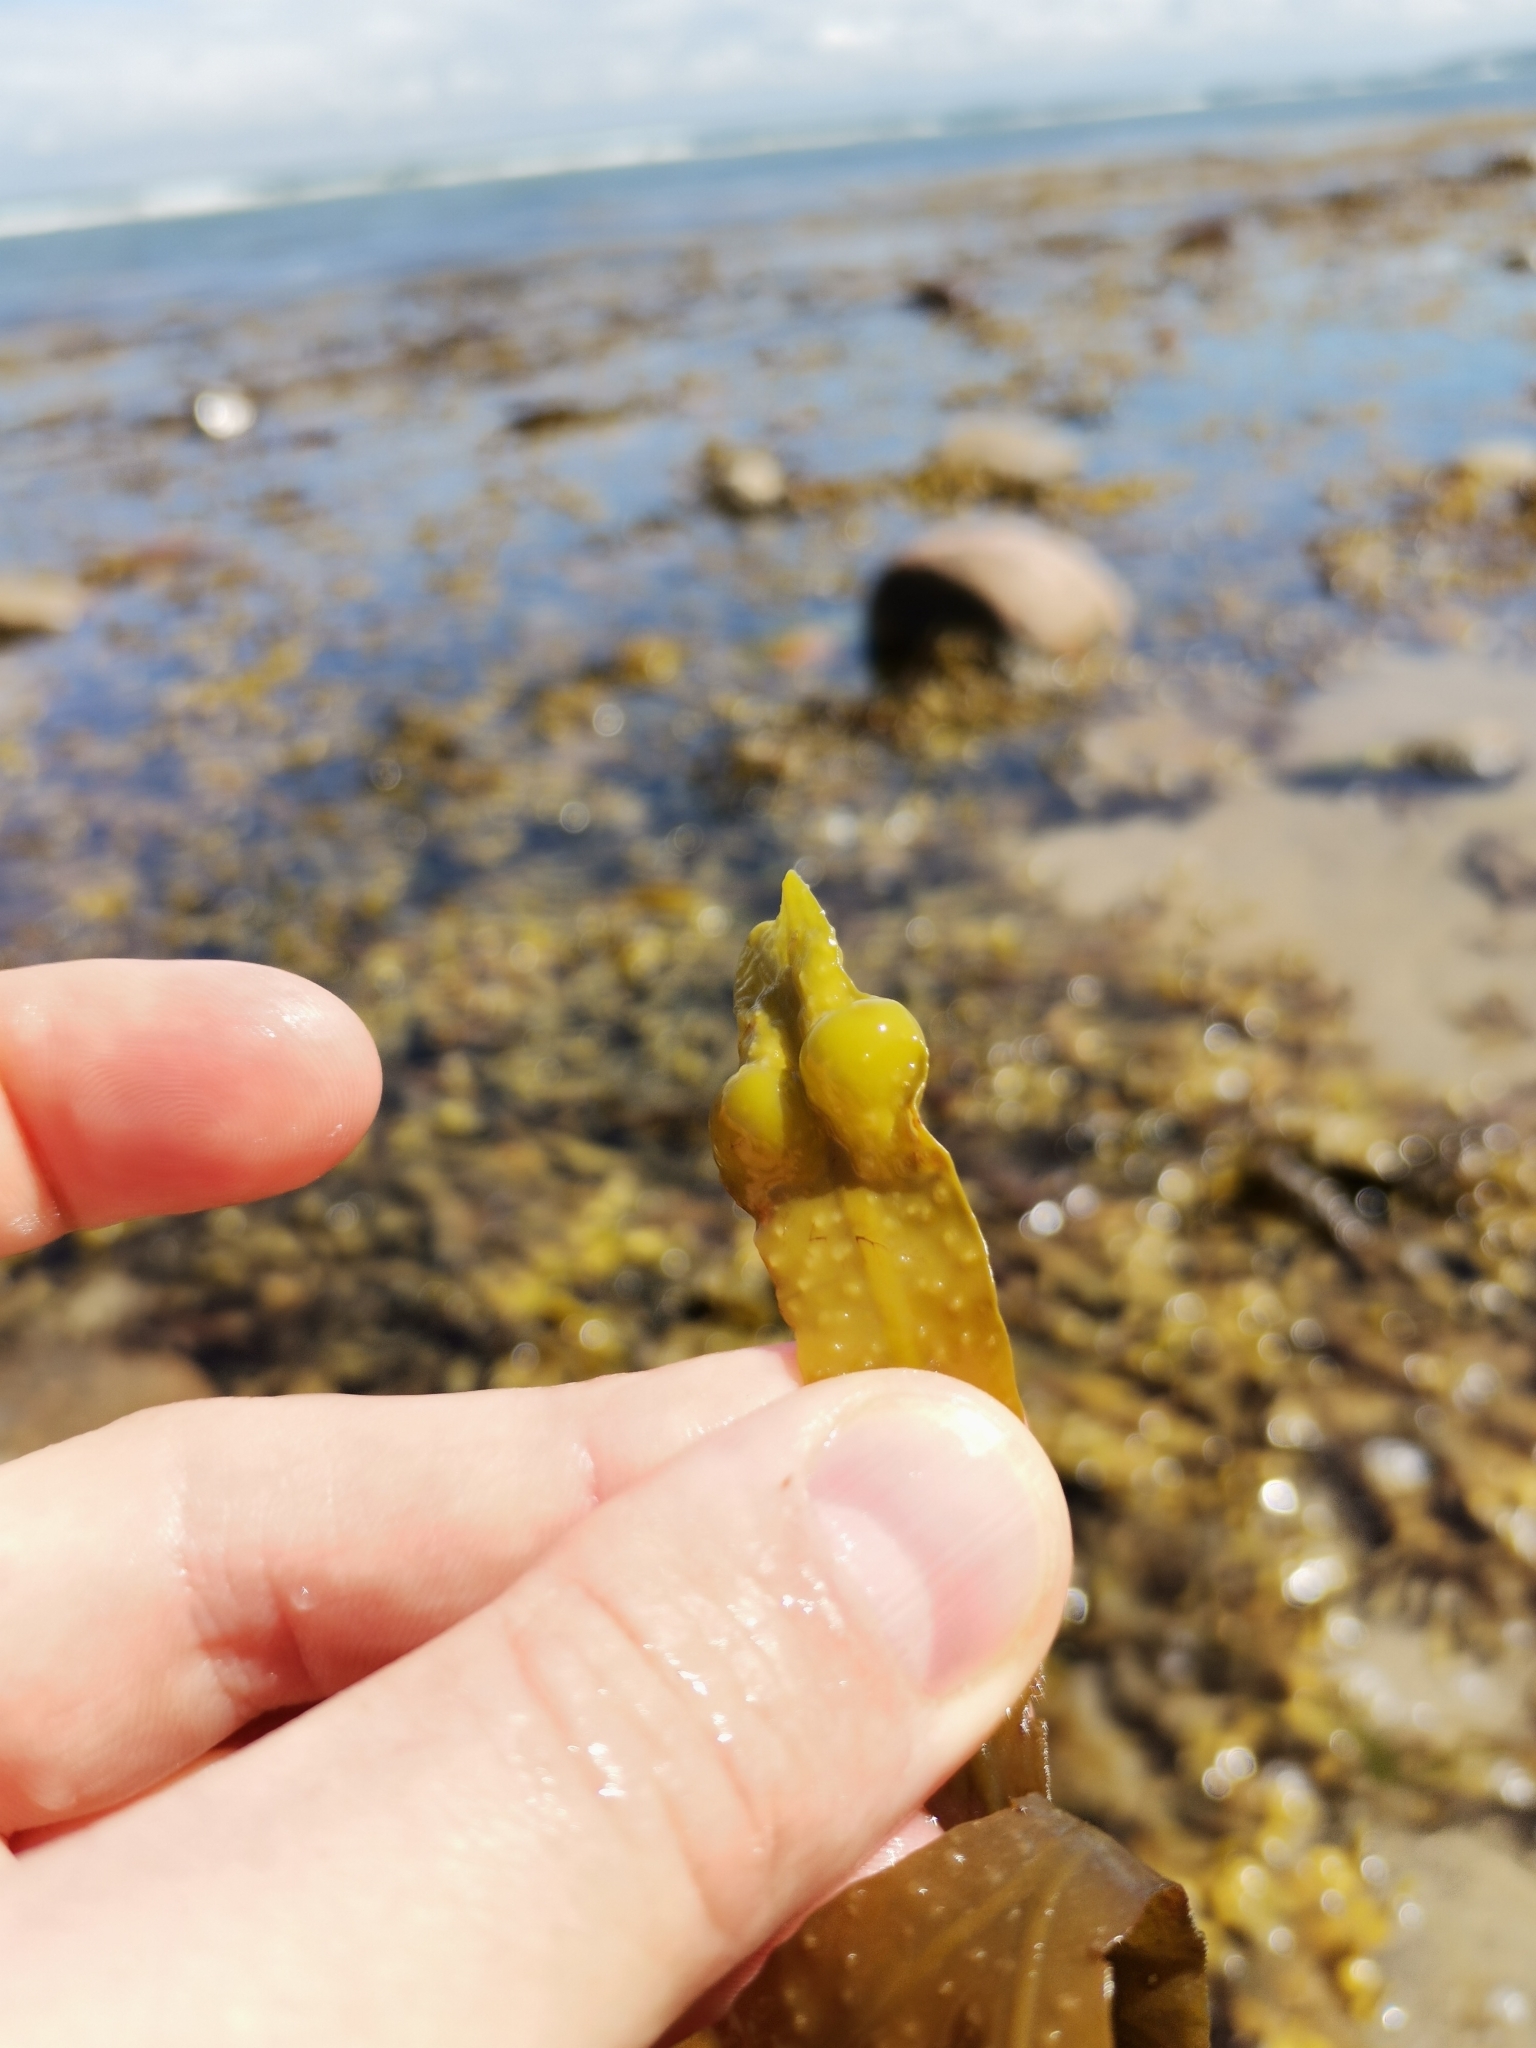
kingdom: Chromista
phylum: Ochrophyta
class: Phaeophyceae
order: Fucales
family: Fucaceae
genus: Fucus
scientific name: Fucus vesiculosus
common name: Bladder wrack
